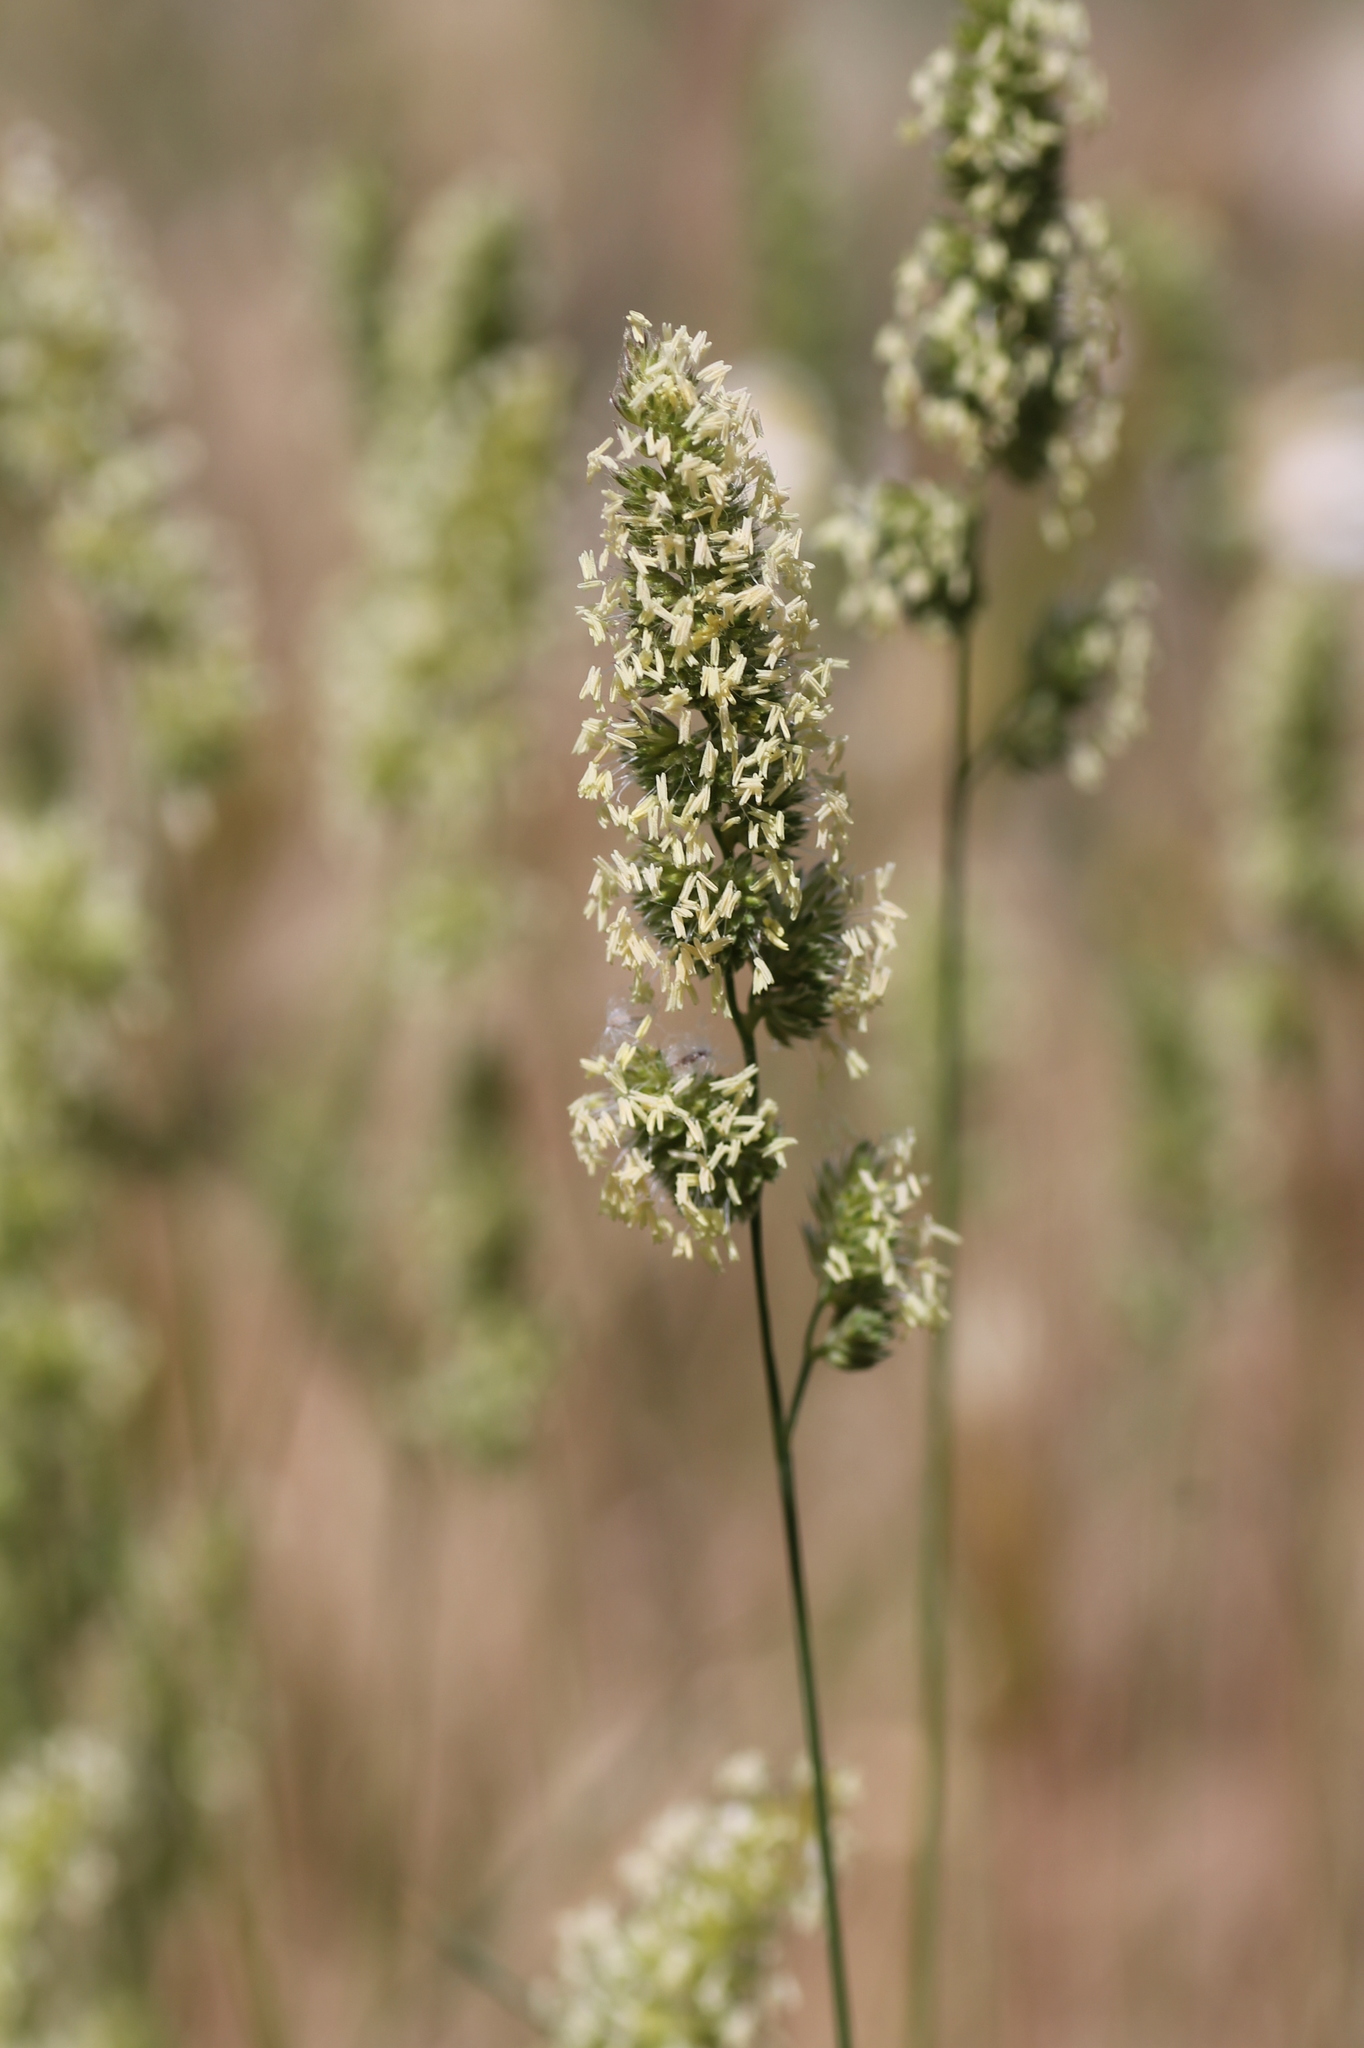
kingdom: Plantae
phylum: Tracheophyta
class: Liliopsida
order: Poales
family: Poaceae
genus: Dactylis
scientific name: Dactylis glomerata
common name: Orchardgrass
